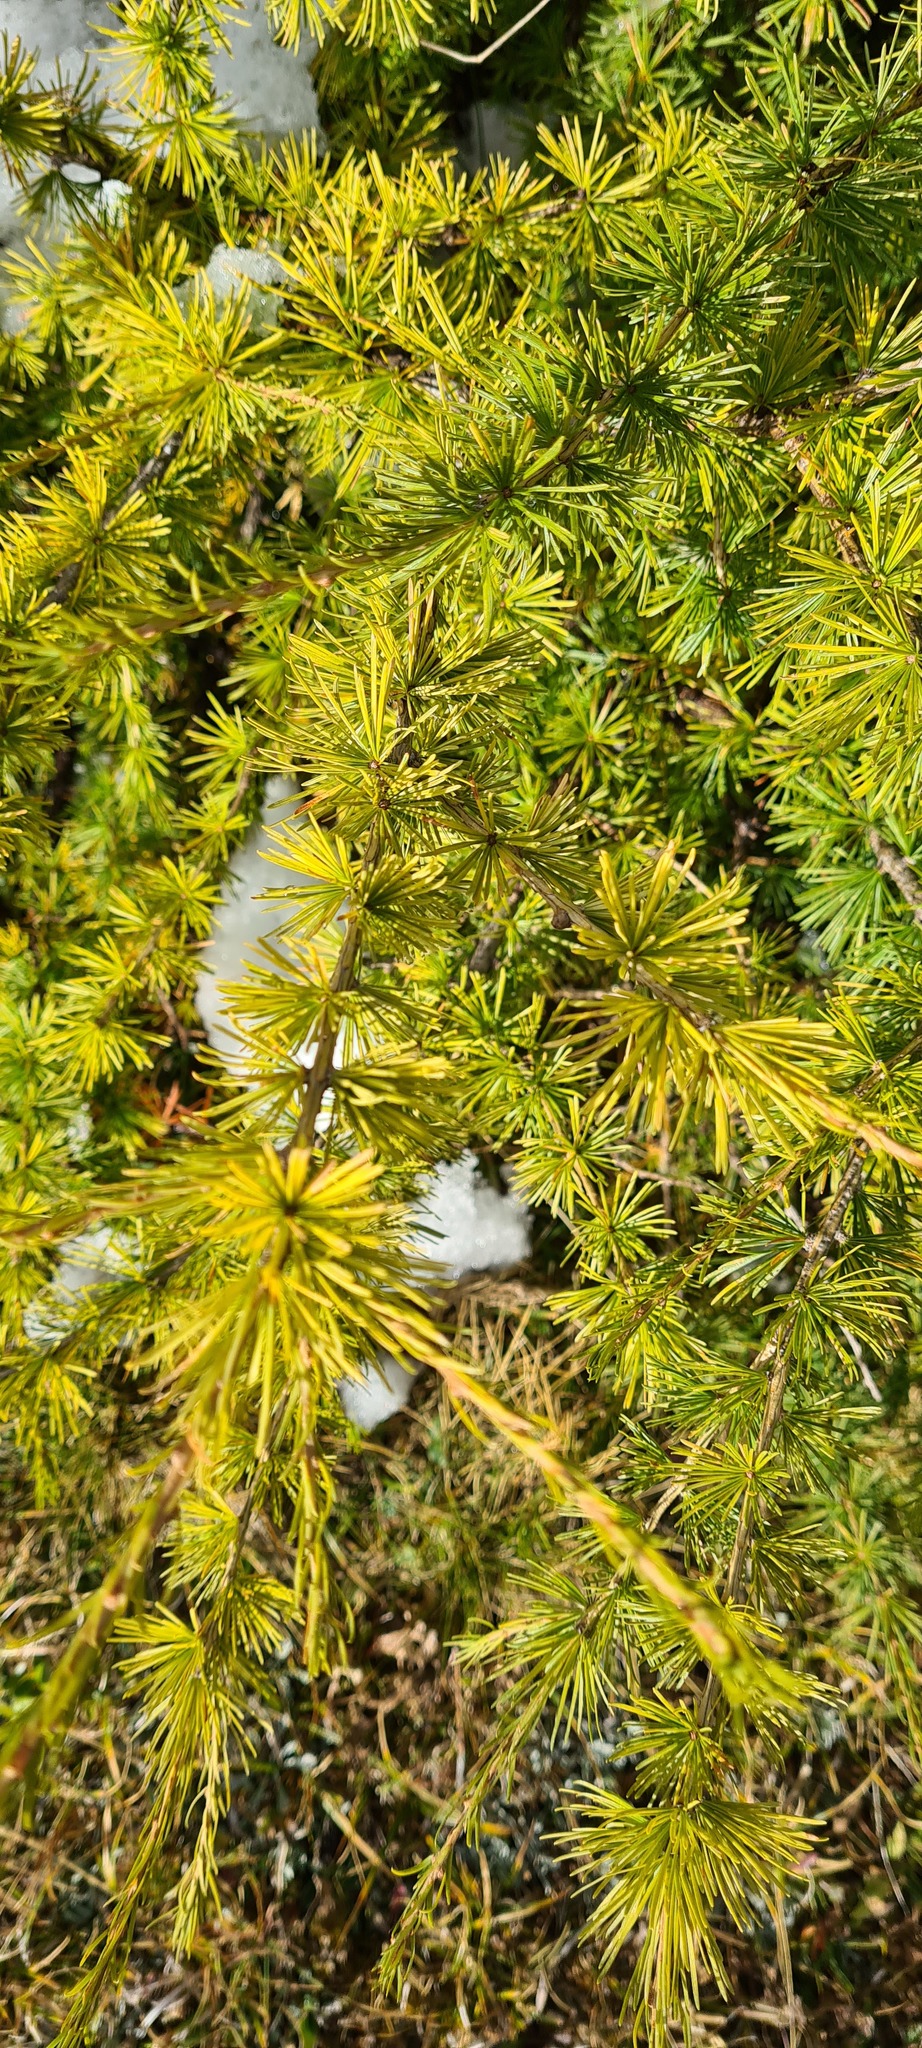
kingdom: Plantae
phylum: Tracheophyta
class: Pinopsida
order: Pinales
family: Pinaceae
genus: Larix
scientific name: Larix decidua
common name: European larch
